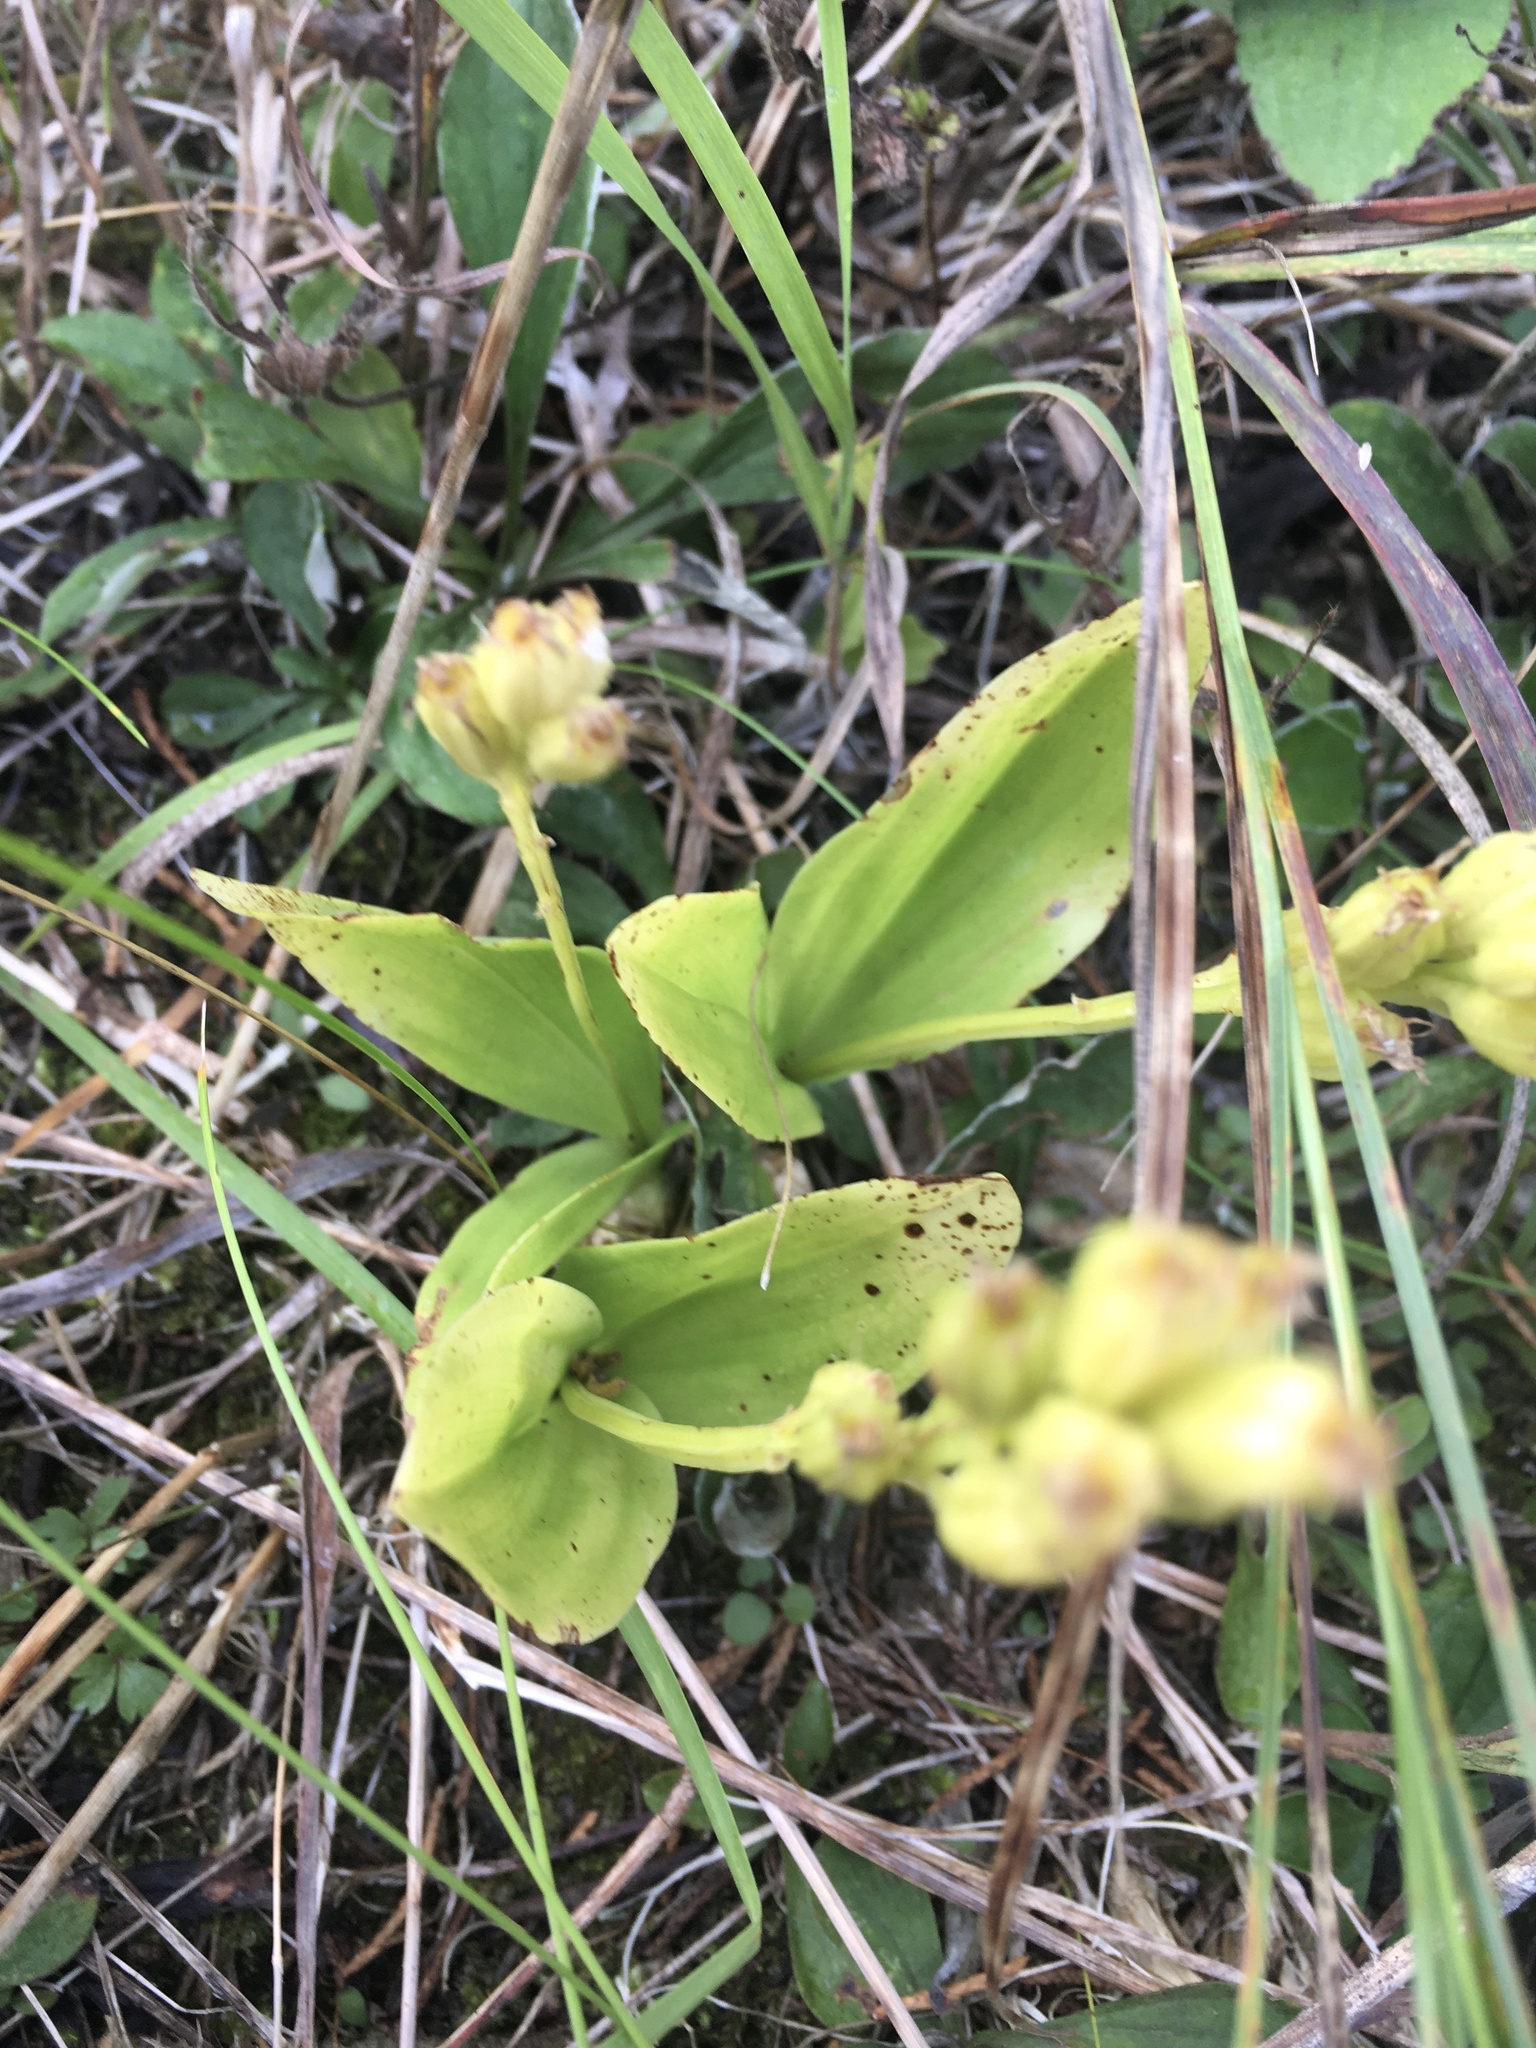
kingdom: Animalia
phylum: Arthropoda
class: Insecta
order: Coleoptera
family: Curculionidae
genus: Liparis
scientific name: Liparis loeselii
